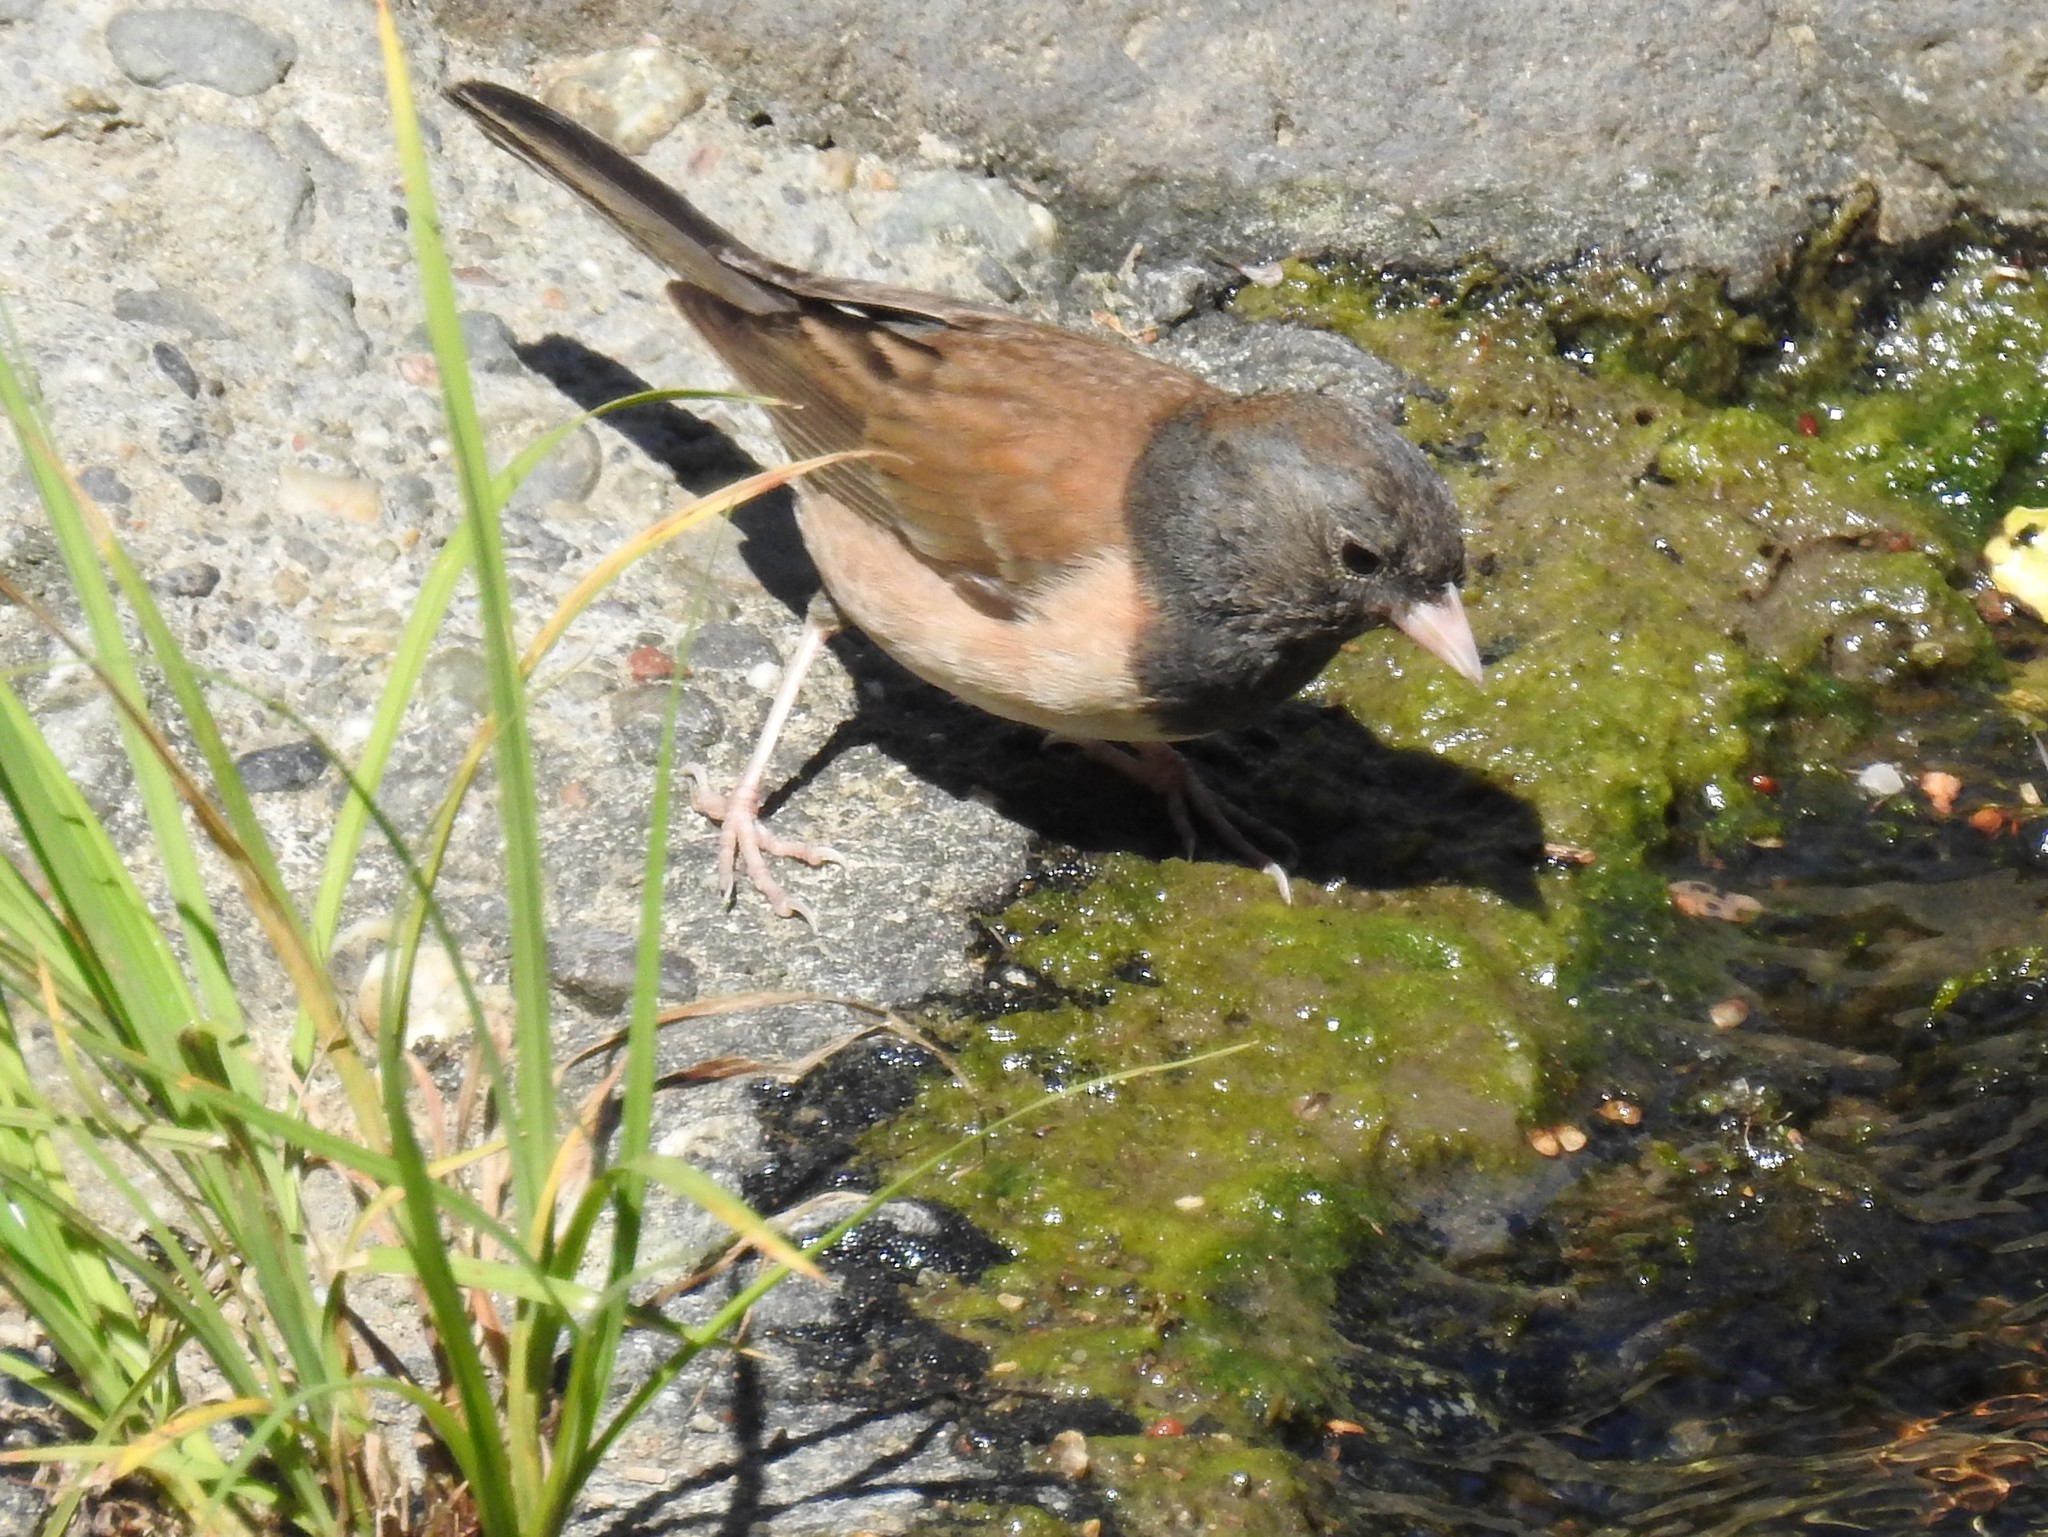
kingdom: Animalia
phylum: Chordata
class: Aves
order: Passeriformes
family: Passerellidae
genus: Junco
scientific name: Junco hyemalis
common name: Dark-eyed junco
